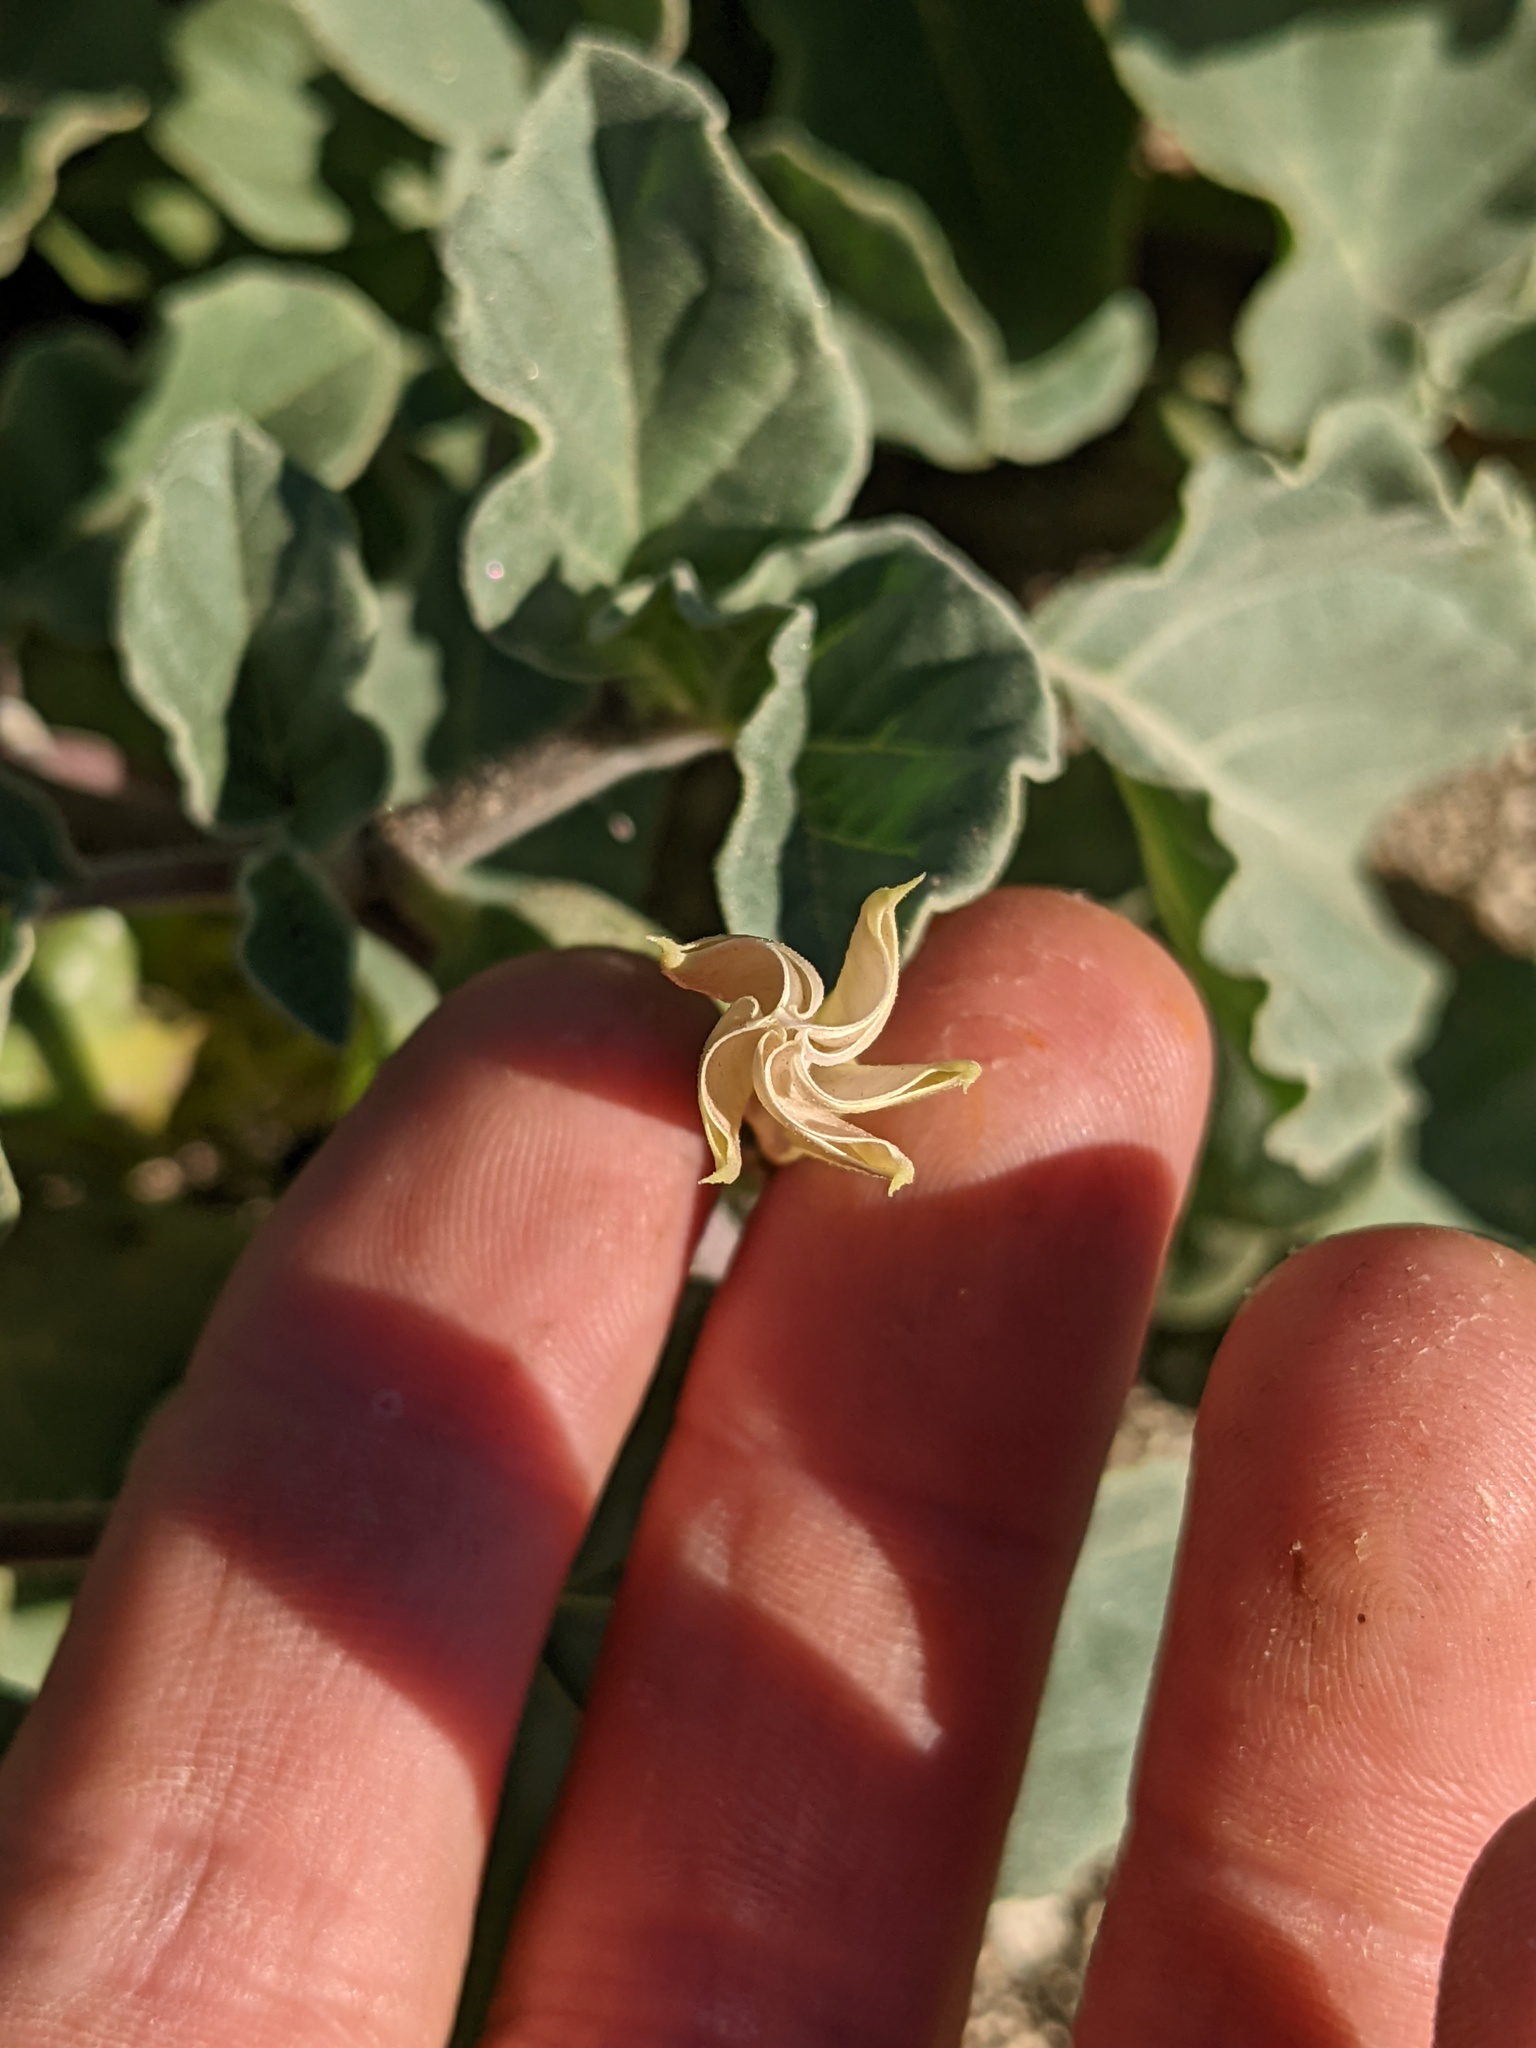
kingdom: Plantae
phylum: Tracheophyta
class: Magnoliopsida
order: Solanales
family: Solanaceae
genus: Datura
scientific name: Datura discolor
